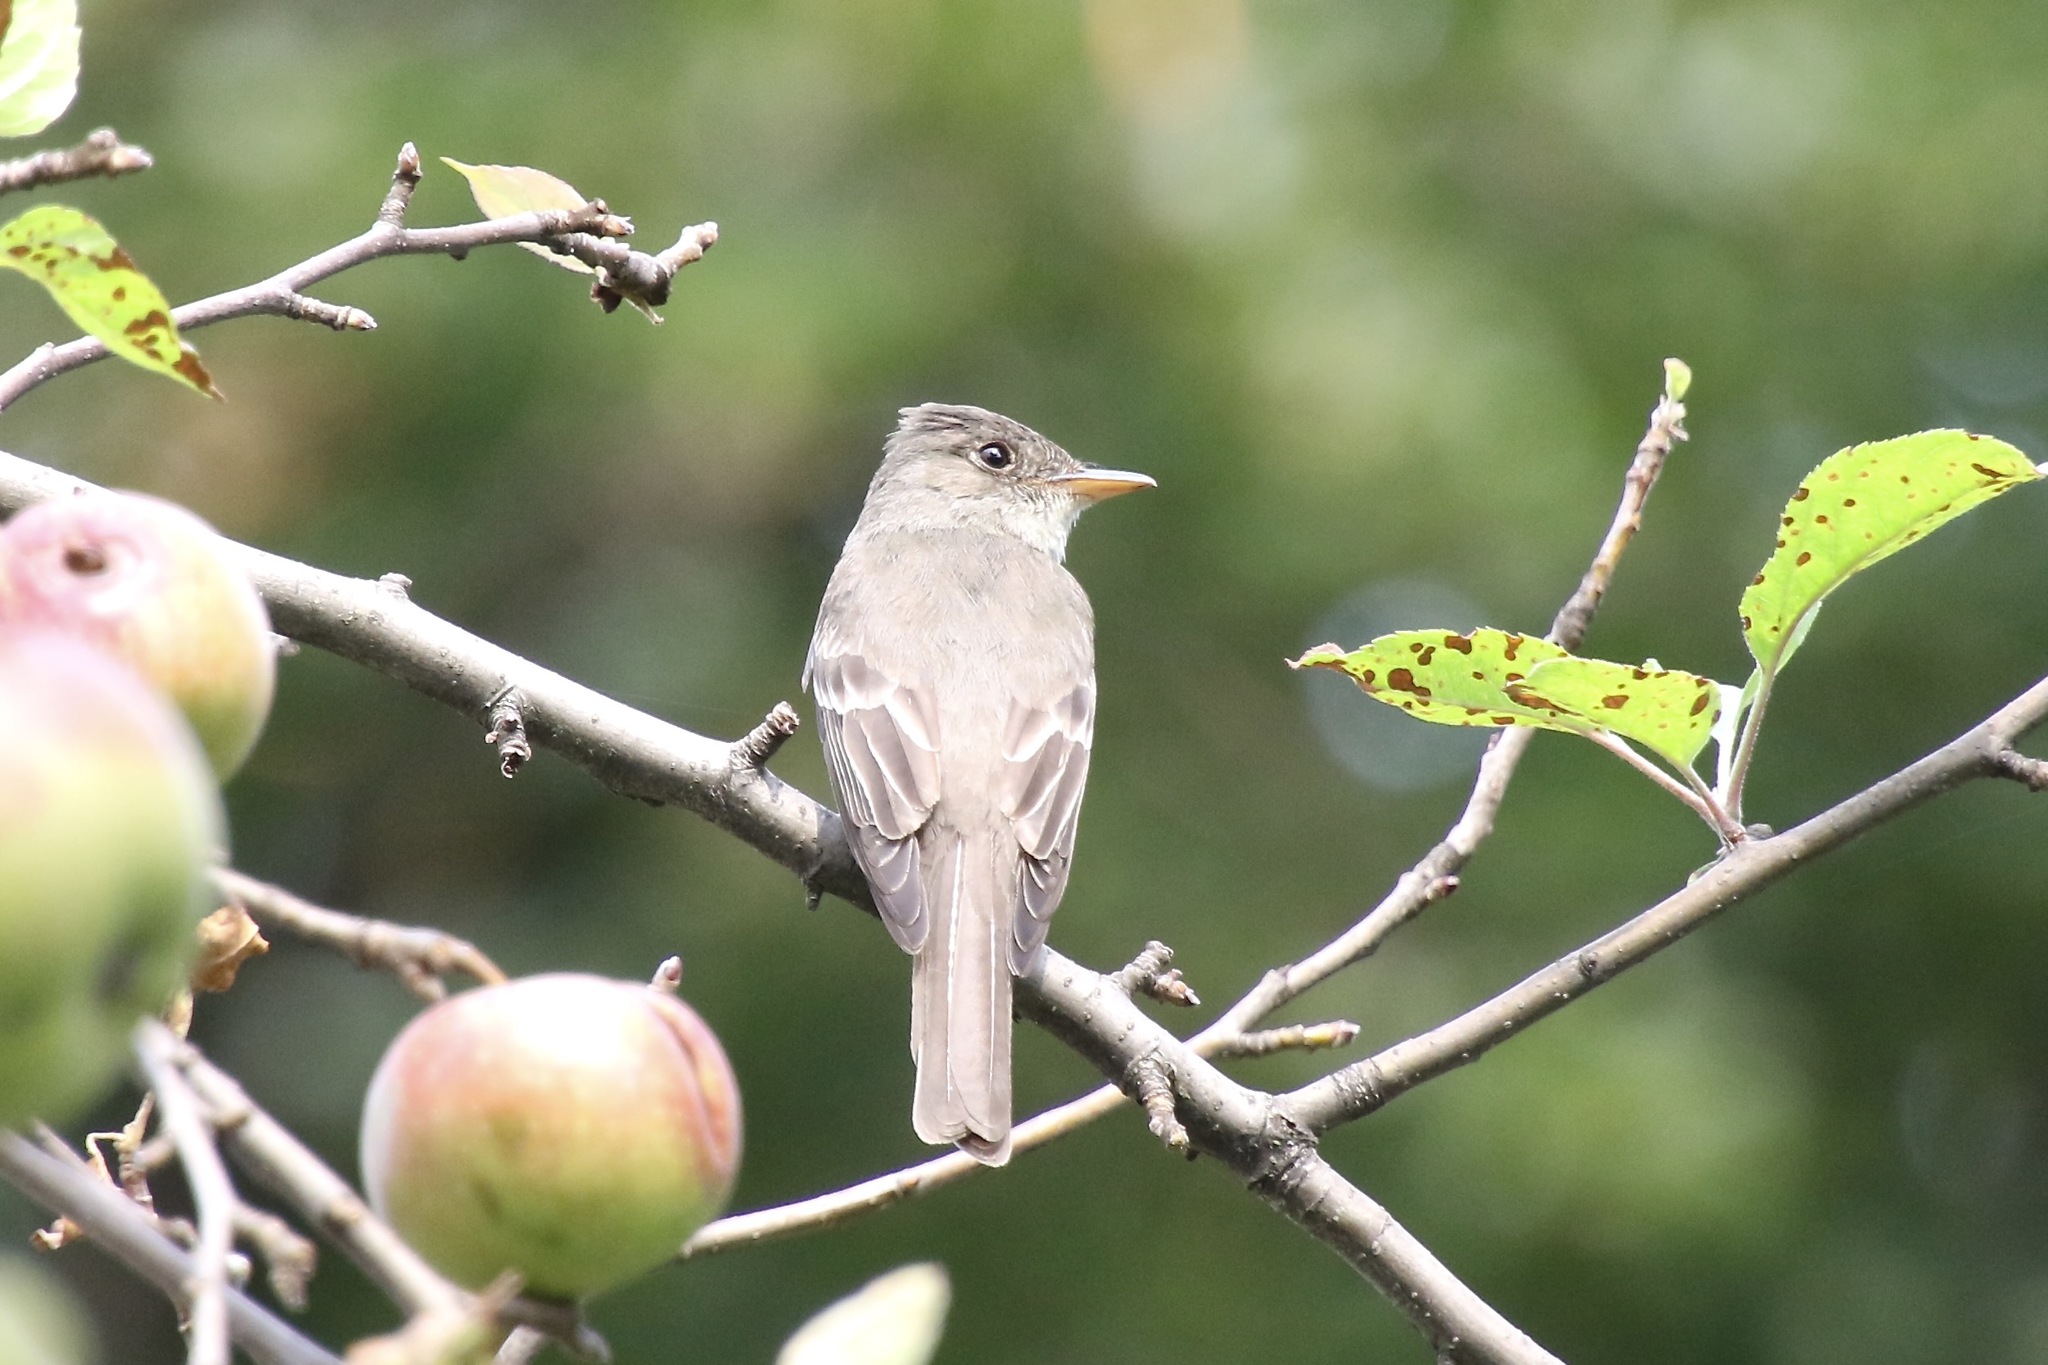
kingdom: Animalia
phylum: Chordata
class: Aves
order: Passeriformes
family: Tyrannidae
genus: Contopus
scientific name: Contopus virens
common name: Eastern wood-pewee
